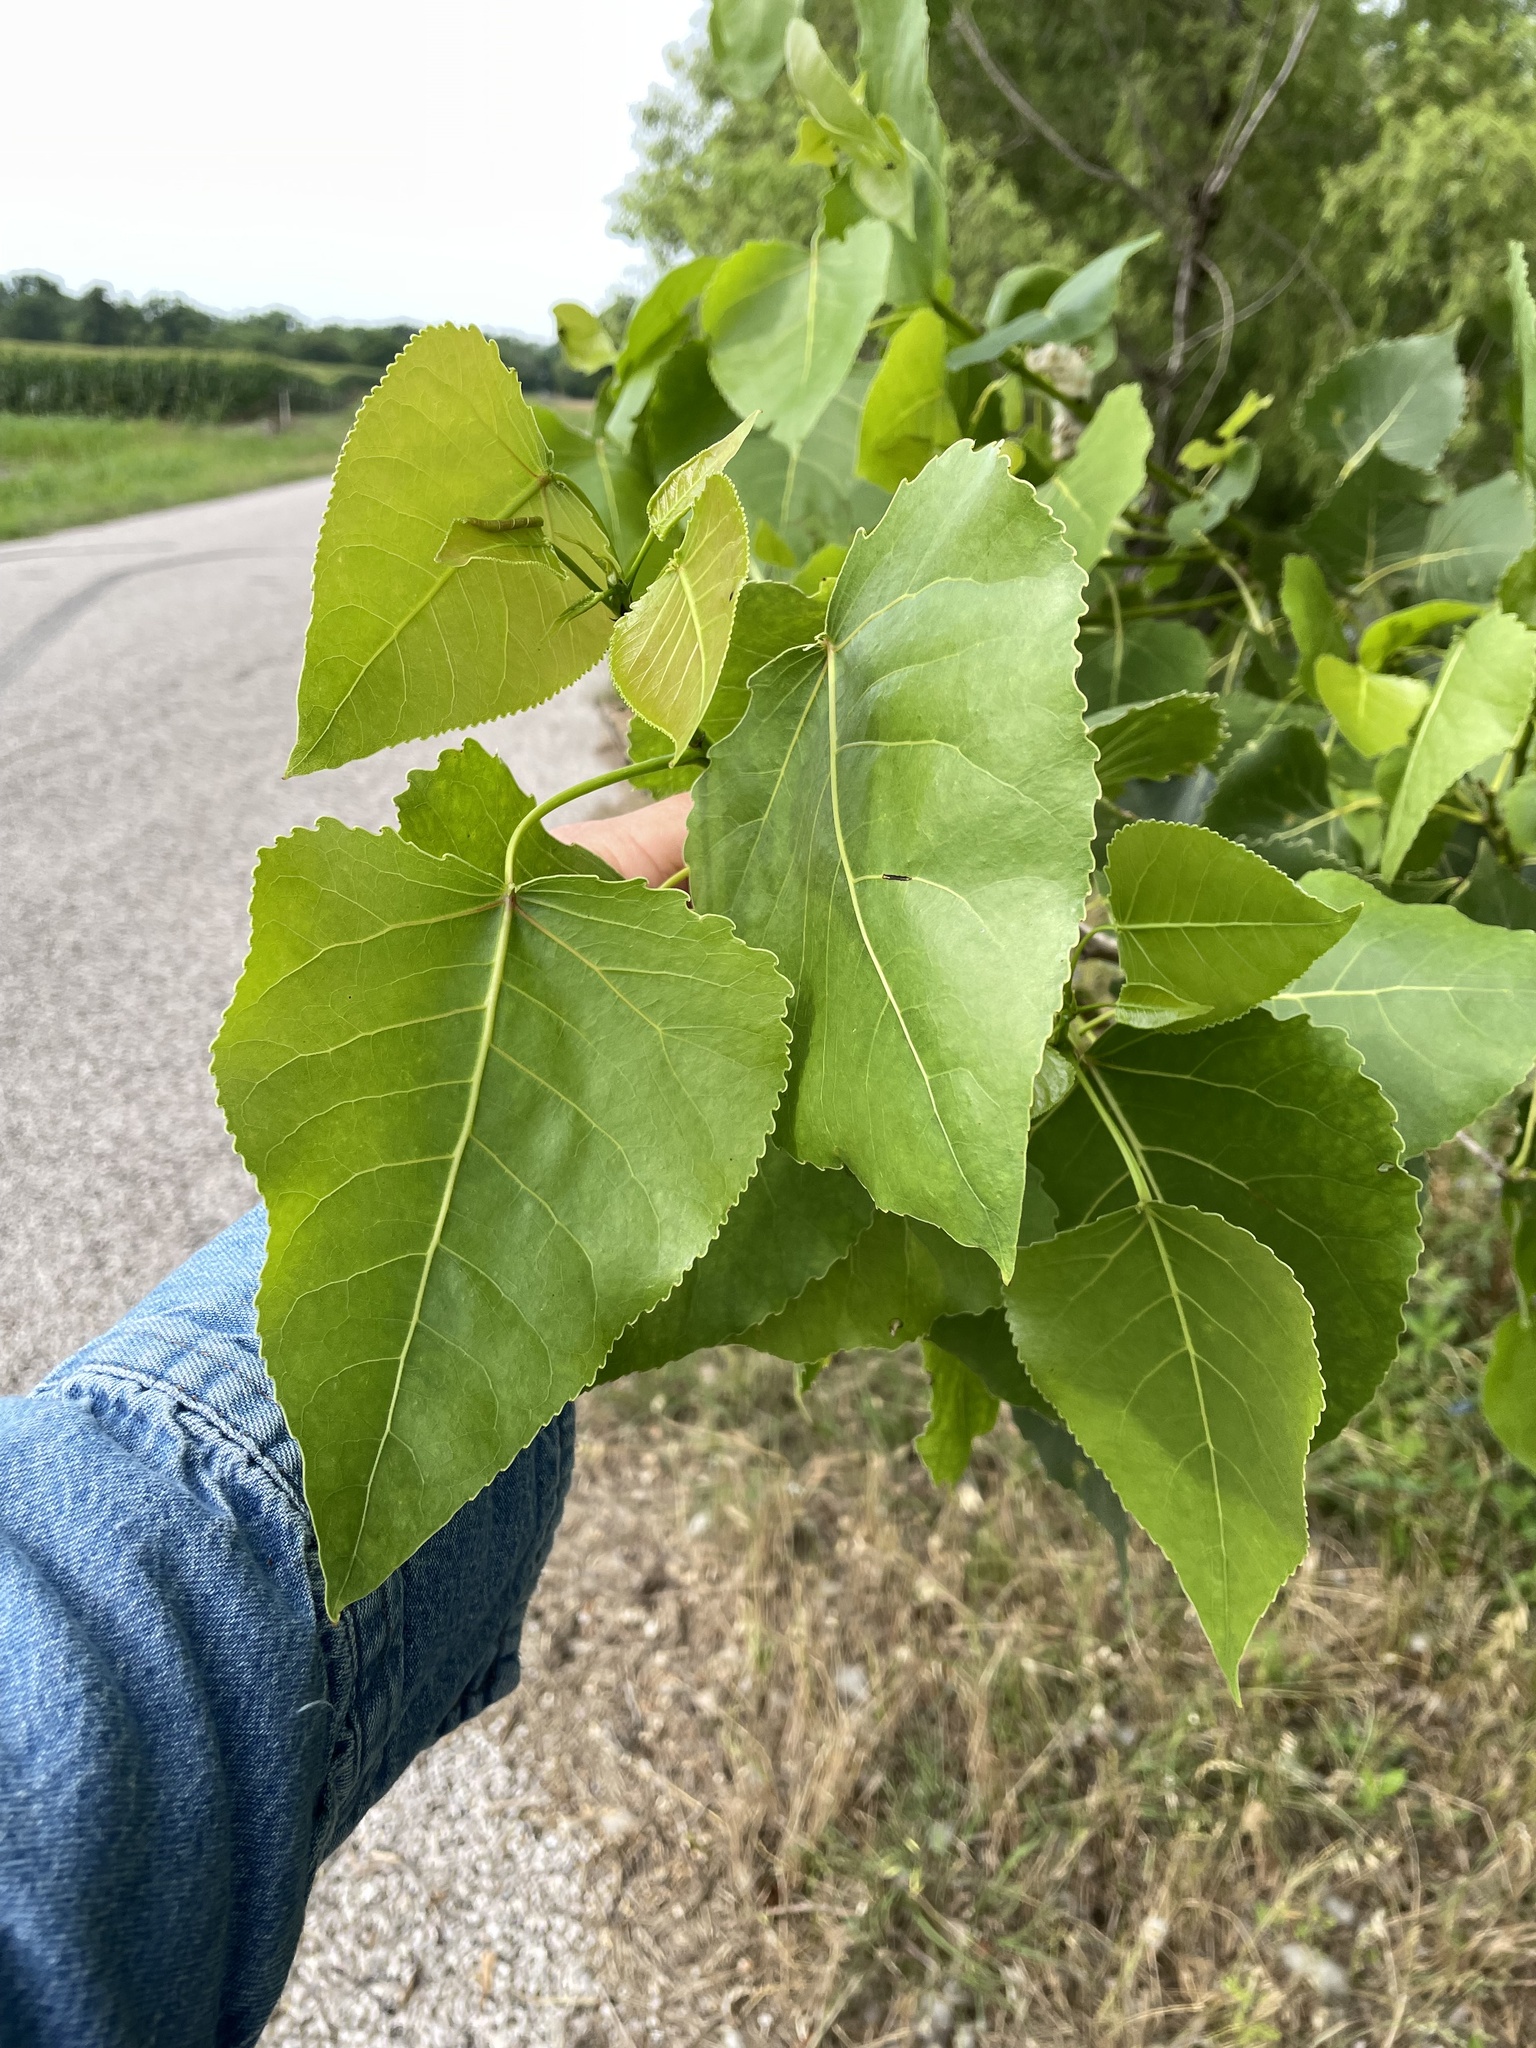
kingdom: Plantae
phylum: Tracheophyta
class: Magnoliopsida
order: Malpighiales
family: Salicaceae
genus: Populus
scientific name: Populus deltoides
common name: Eastern cottonwood
